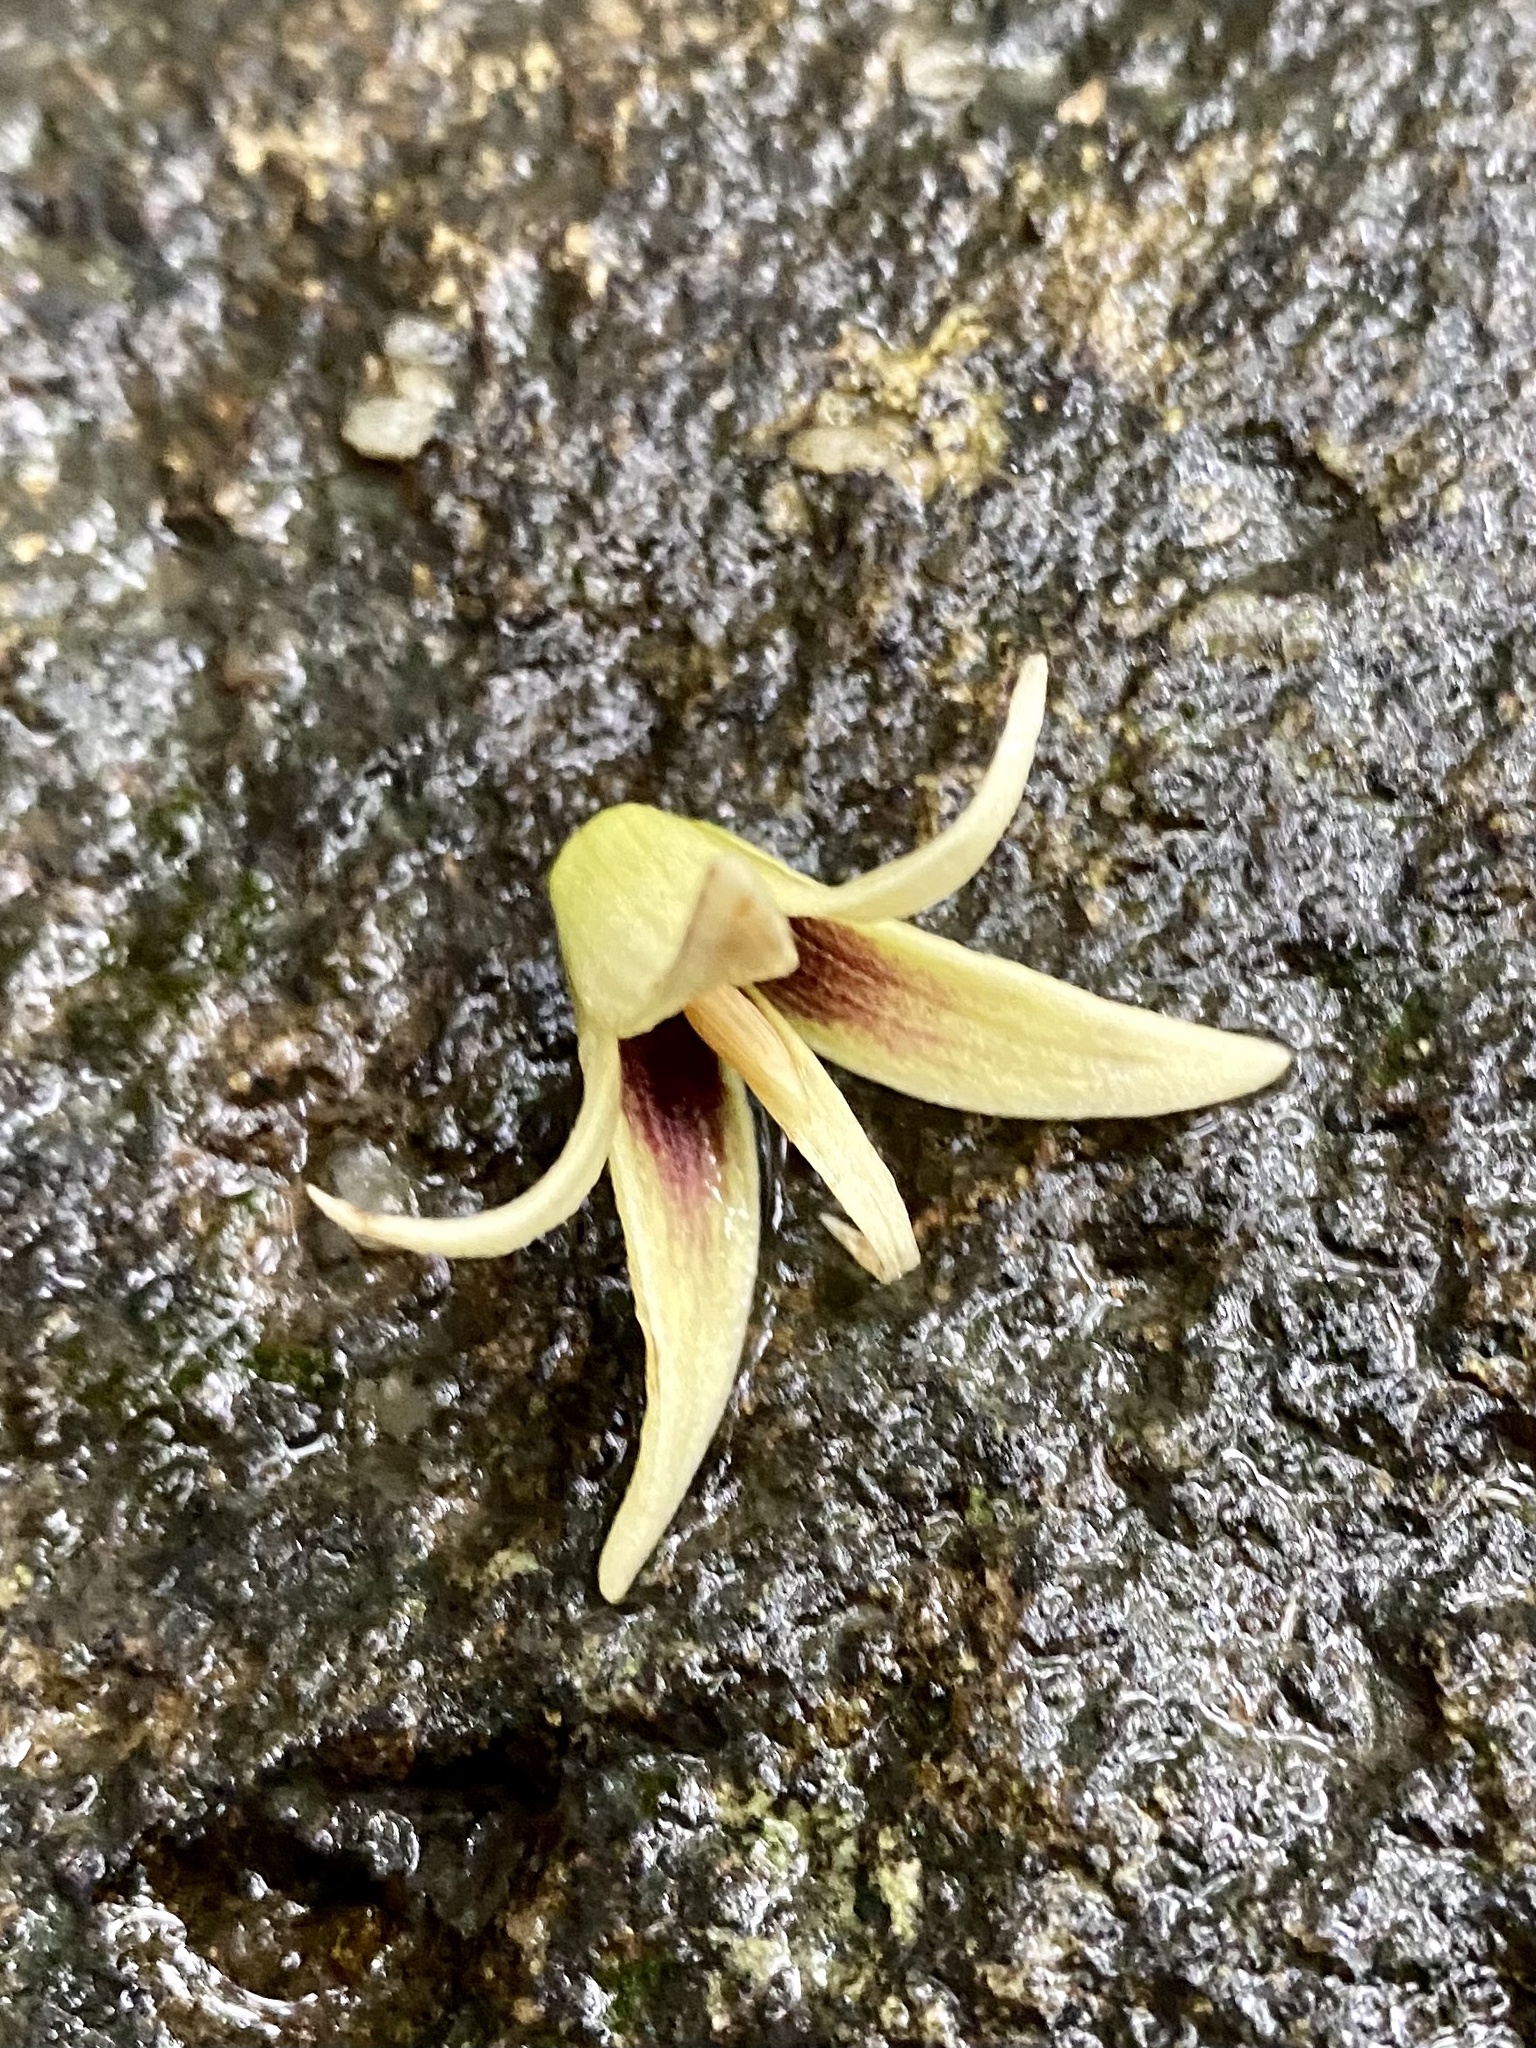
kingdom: Plantae
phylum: Tracheophyta
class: Magnoliopsida
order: Ranunculales
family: Lardizabalaceae
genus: Stauntonia
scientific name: Stauntonia chinensis
